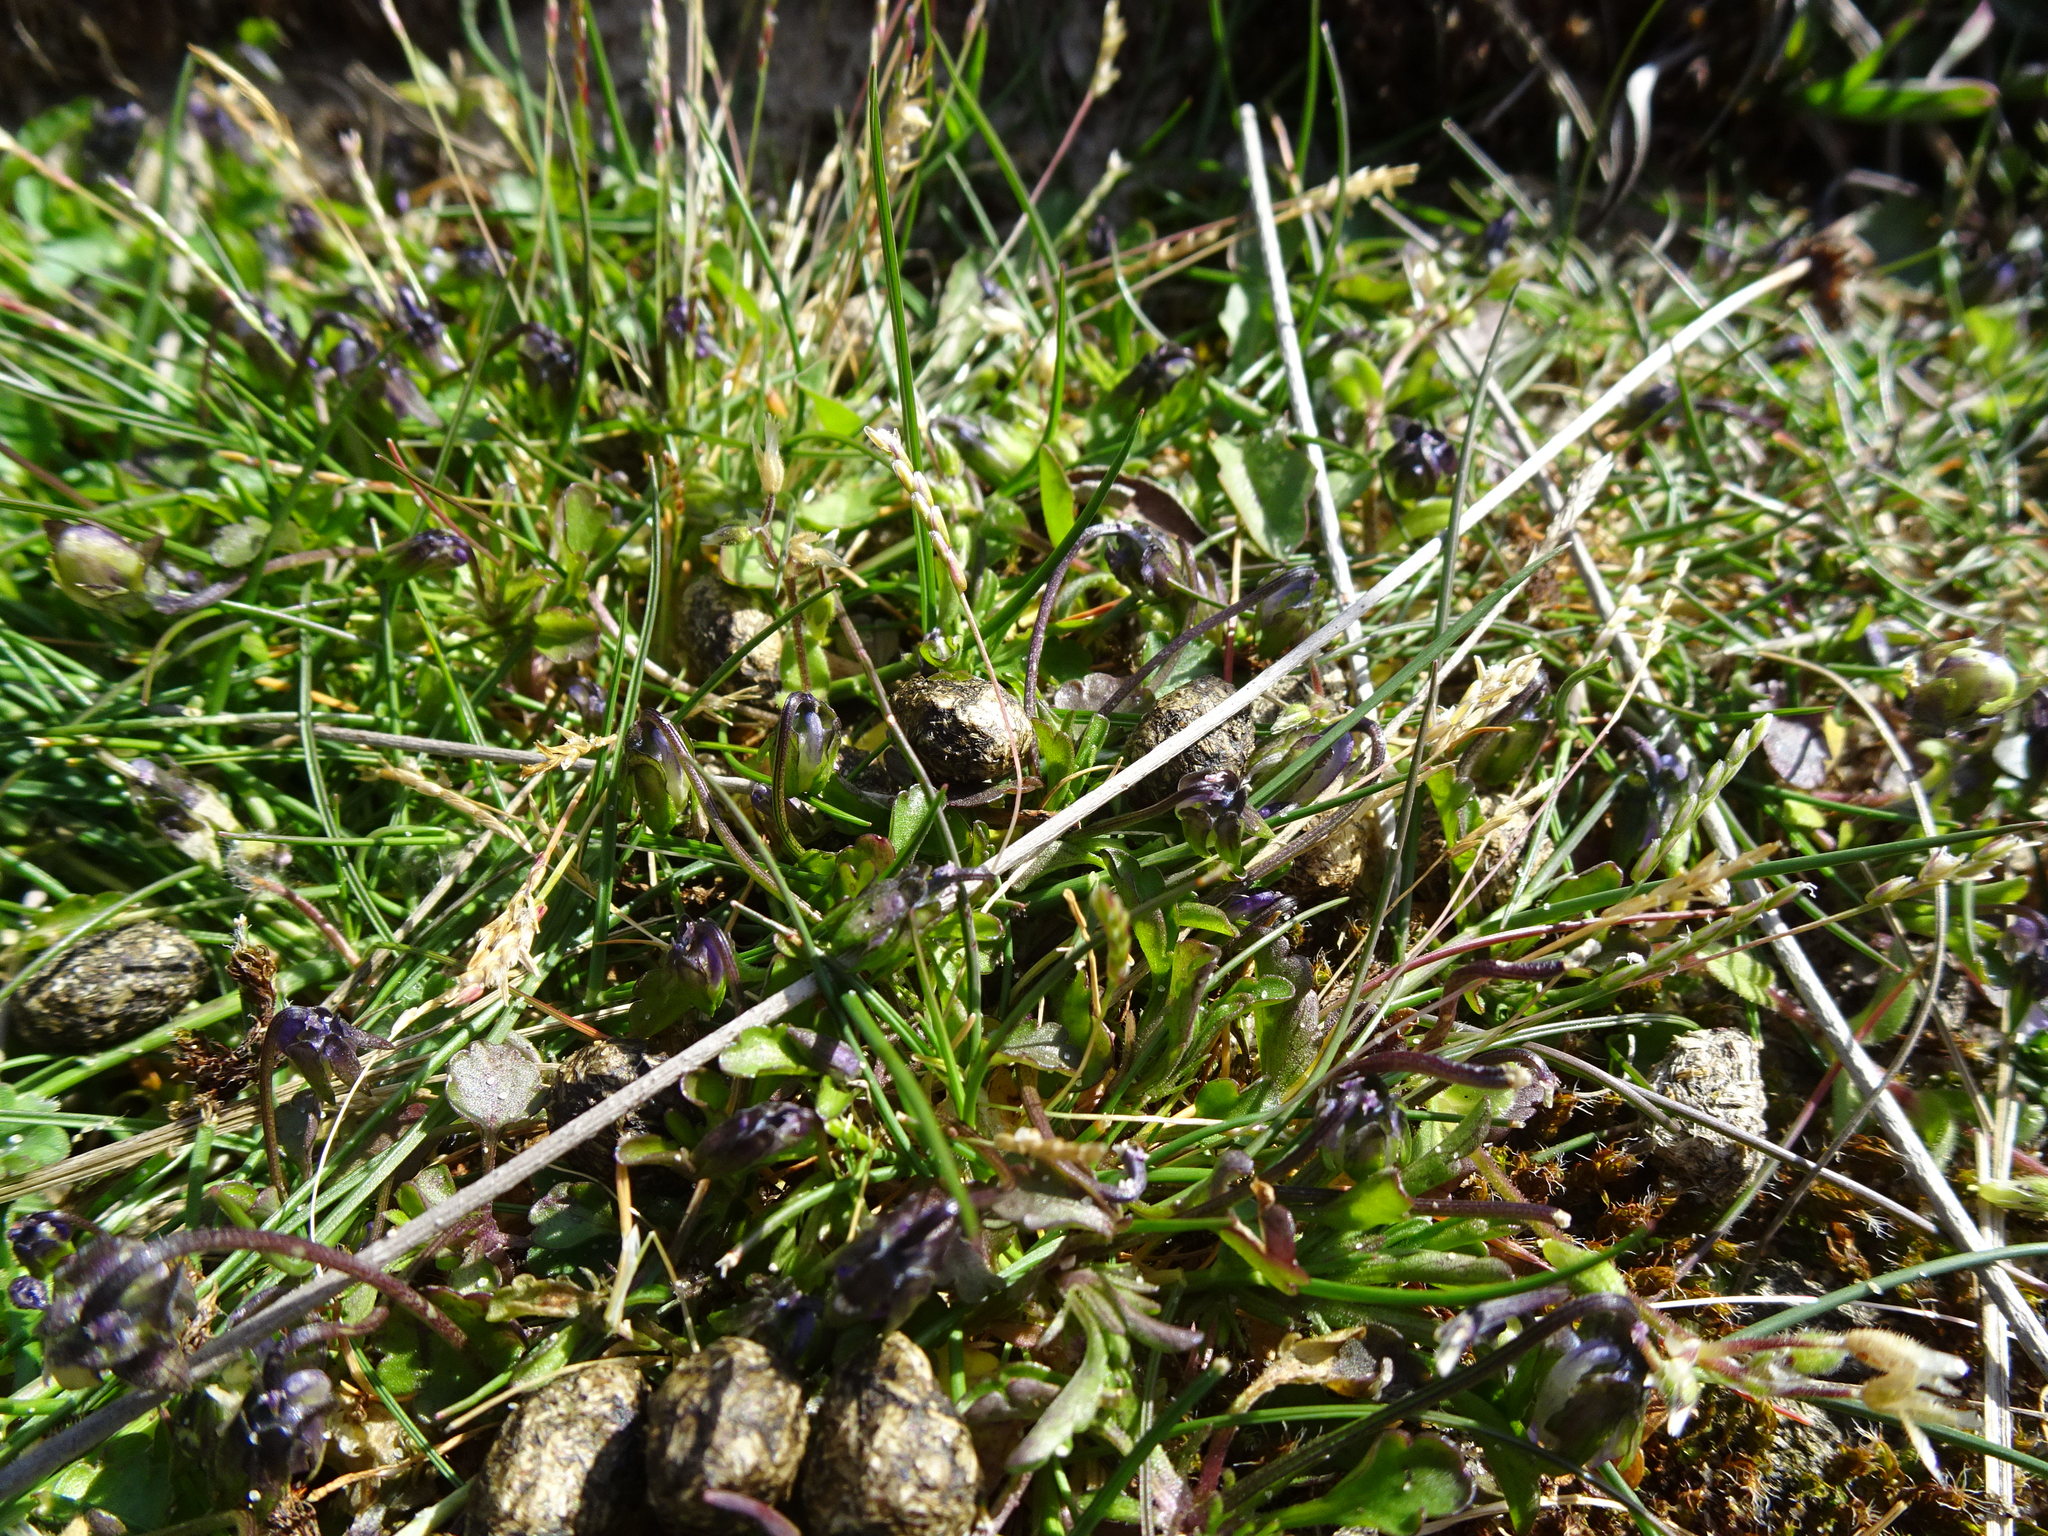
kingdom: Plantae
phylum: Tracheophyta
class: Magnoliopsida
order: Malpighiales
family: Violaceae
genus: Viola
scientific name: Viola kitaibeliana
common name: Dwarf pansy
